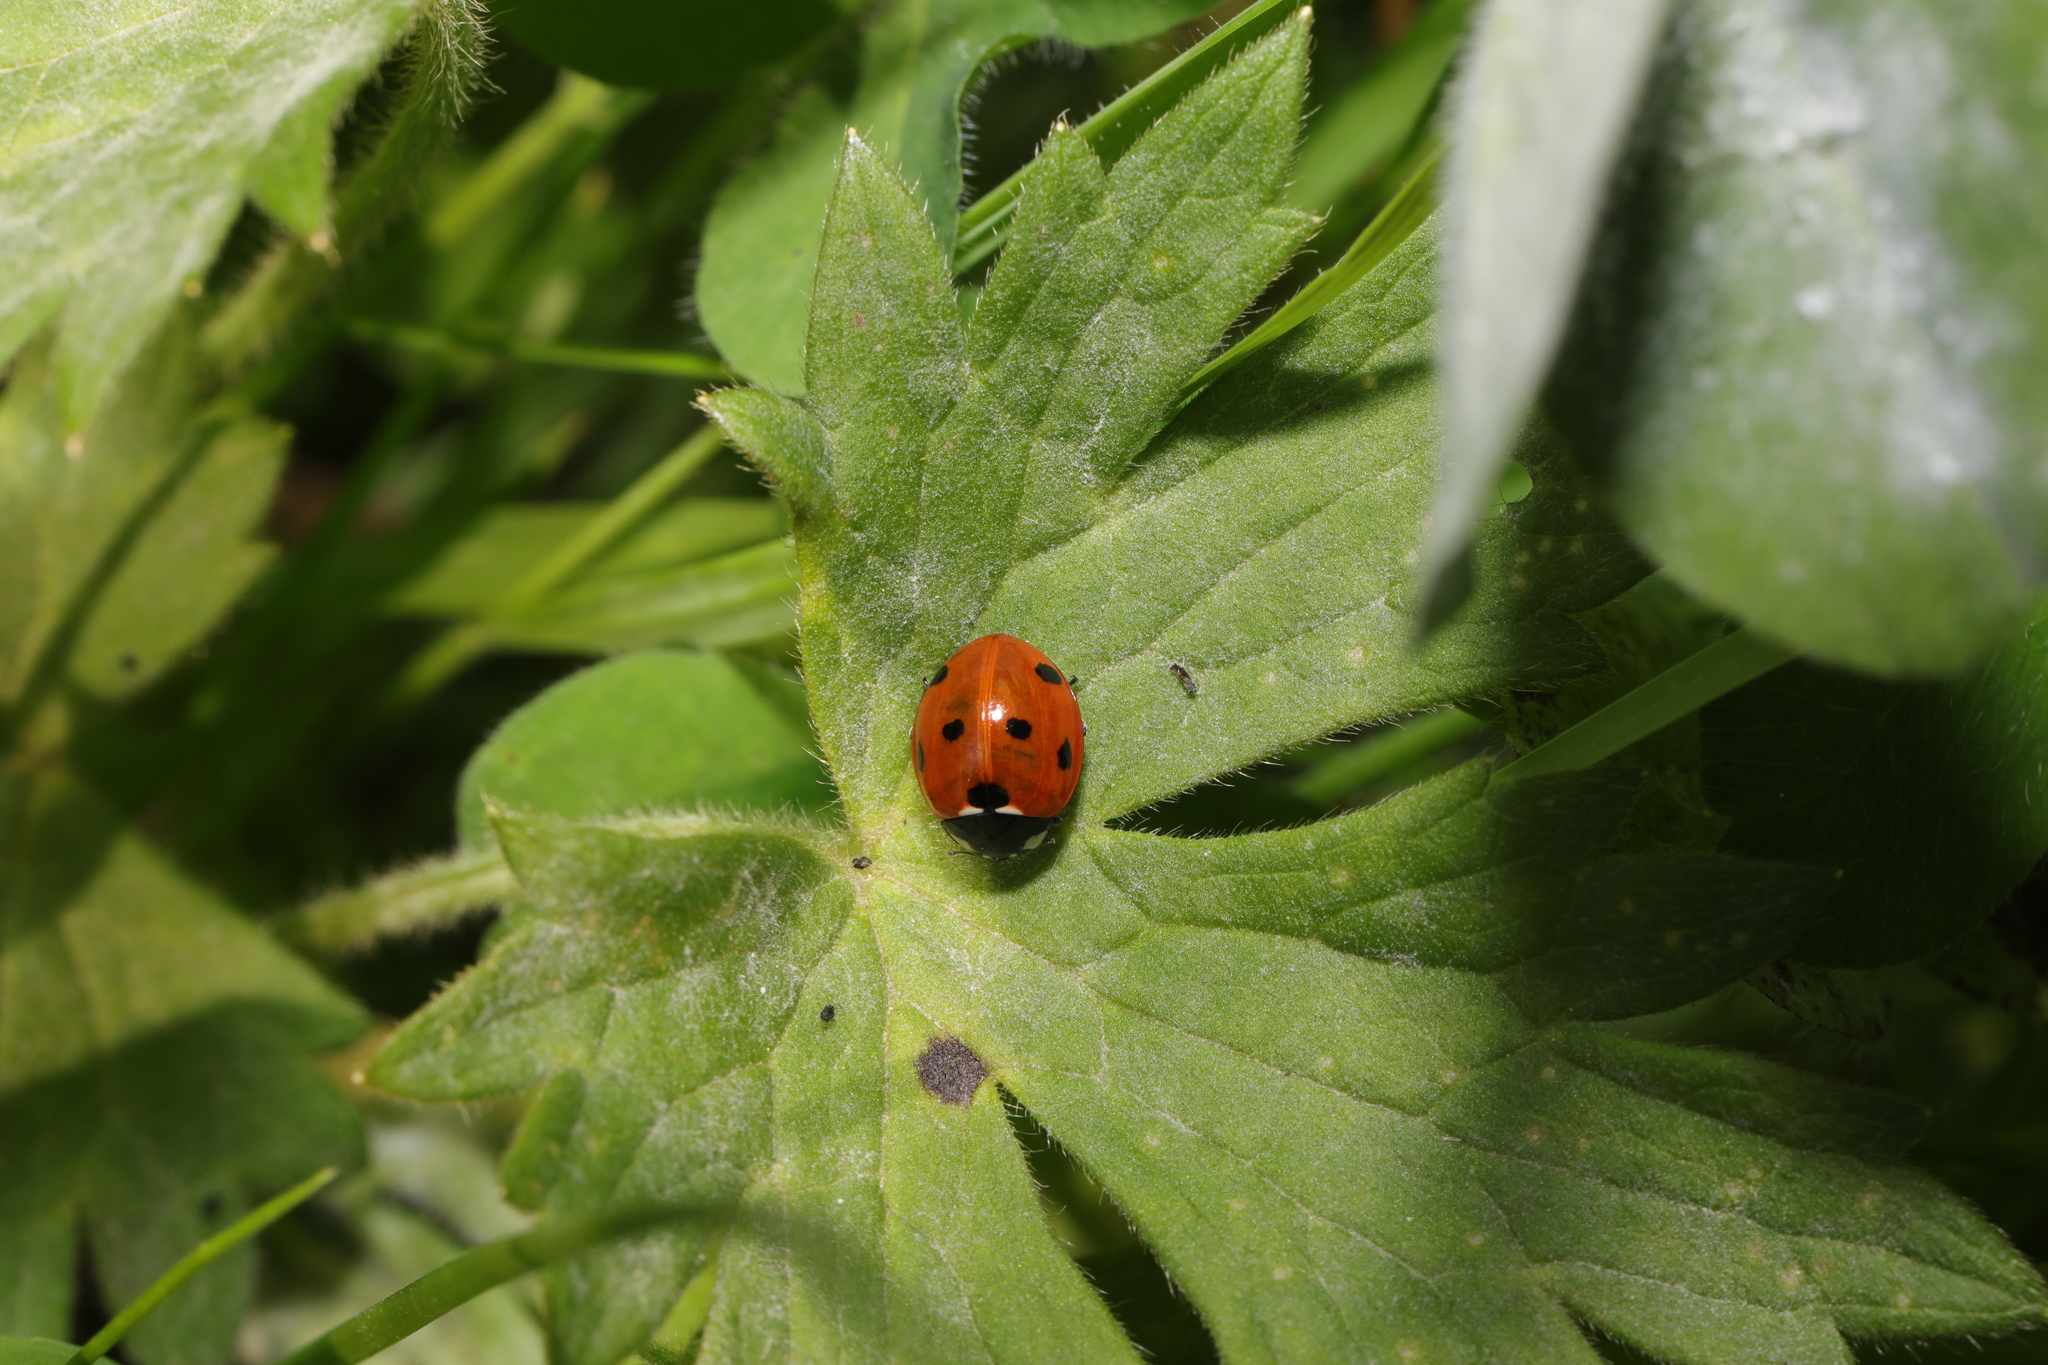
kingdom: Animalia
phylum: Arthropoda
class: Insecta
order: Coleoptera
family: Coccinellidae
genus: Coccinella
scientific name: Coccinella septempunctata
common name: Sevenspotted lady beetle
